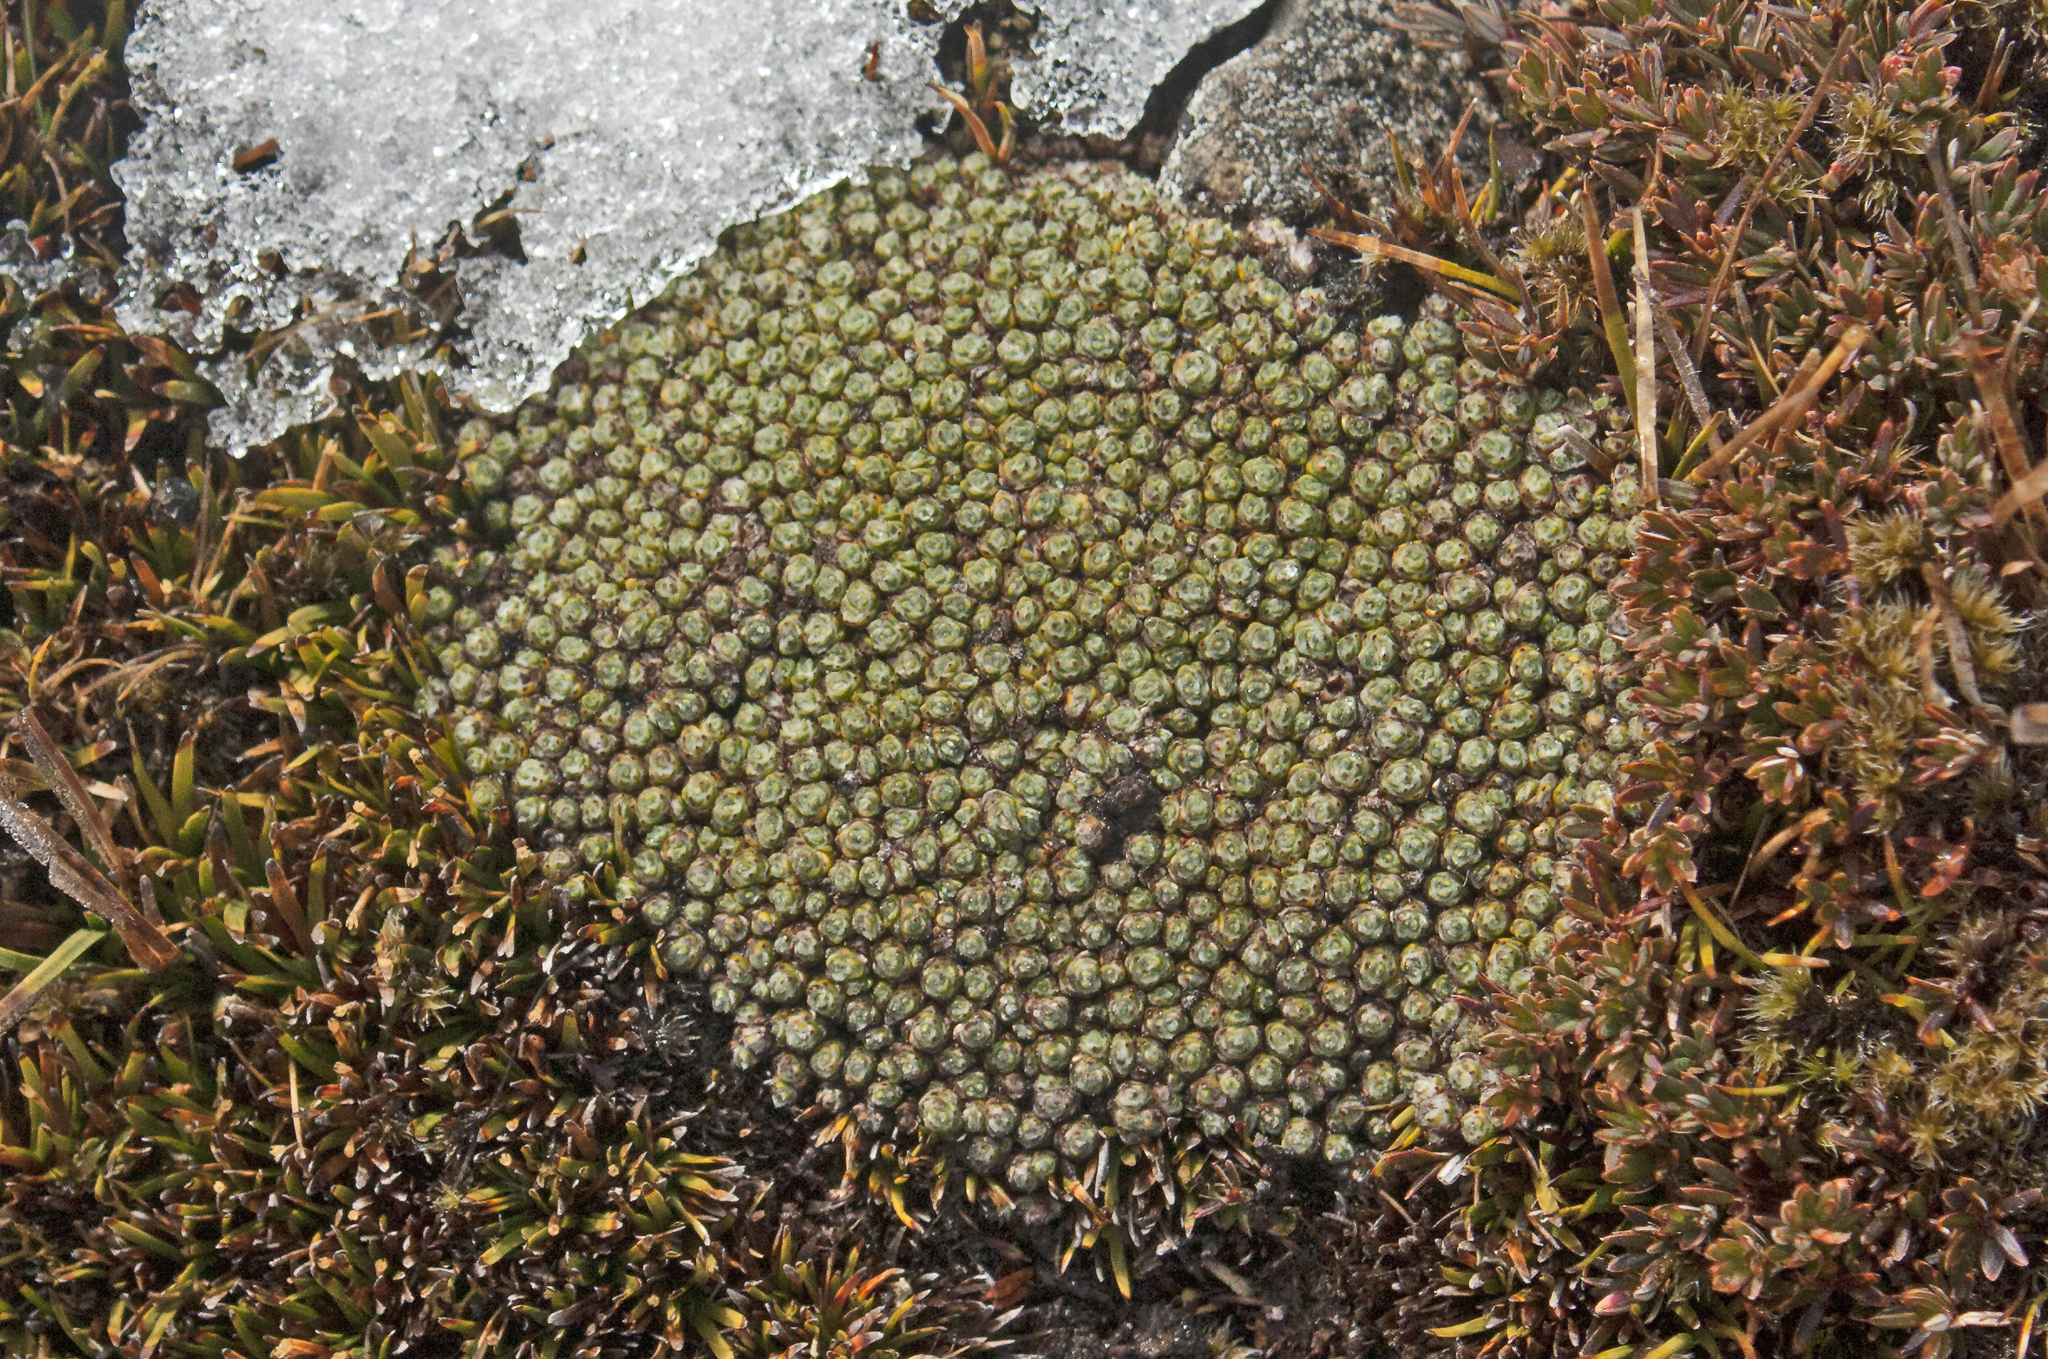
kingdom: Plantae
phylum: Tracheophyta
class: Magnoliopsida
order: Asterales
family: Asteraceae
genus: Pterygopappus
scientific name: Pterygopappus lawrencii
